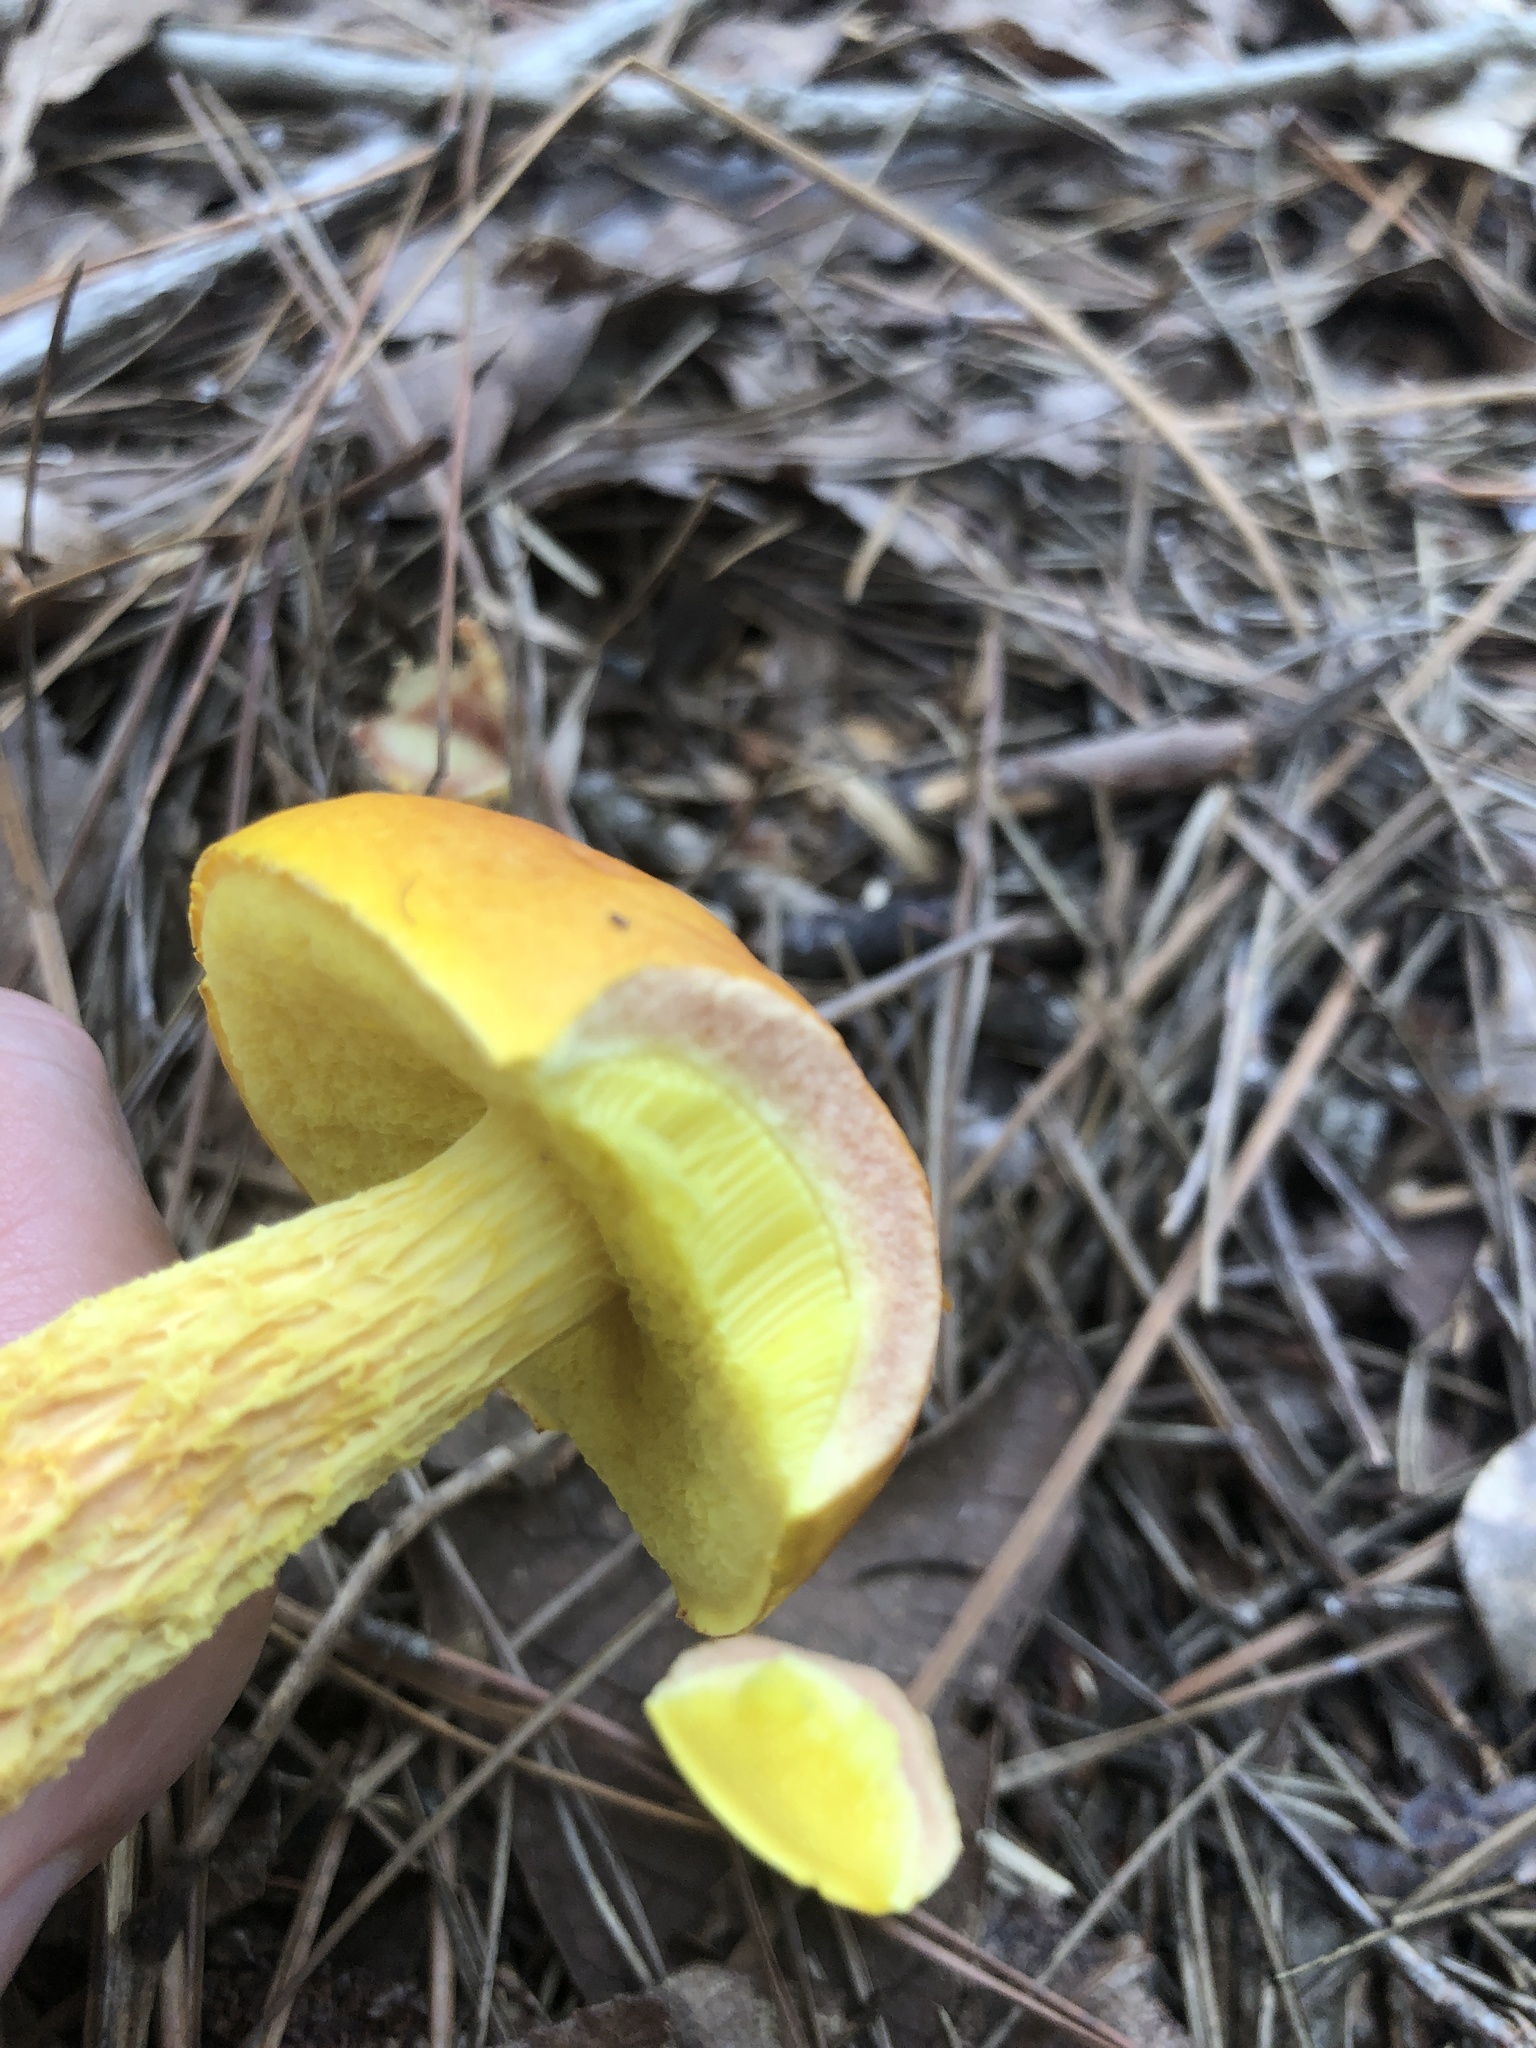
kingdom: Fungi
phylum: Basidiomycota
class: Agaricomycetes
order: Boletales
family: Boletaceae
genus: Aureoboletus
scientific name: Aureoboletus betula
